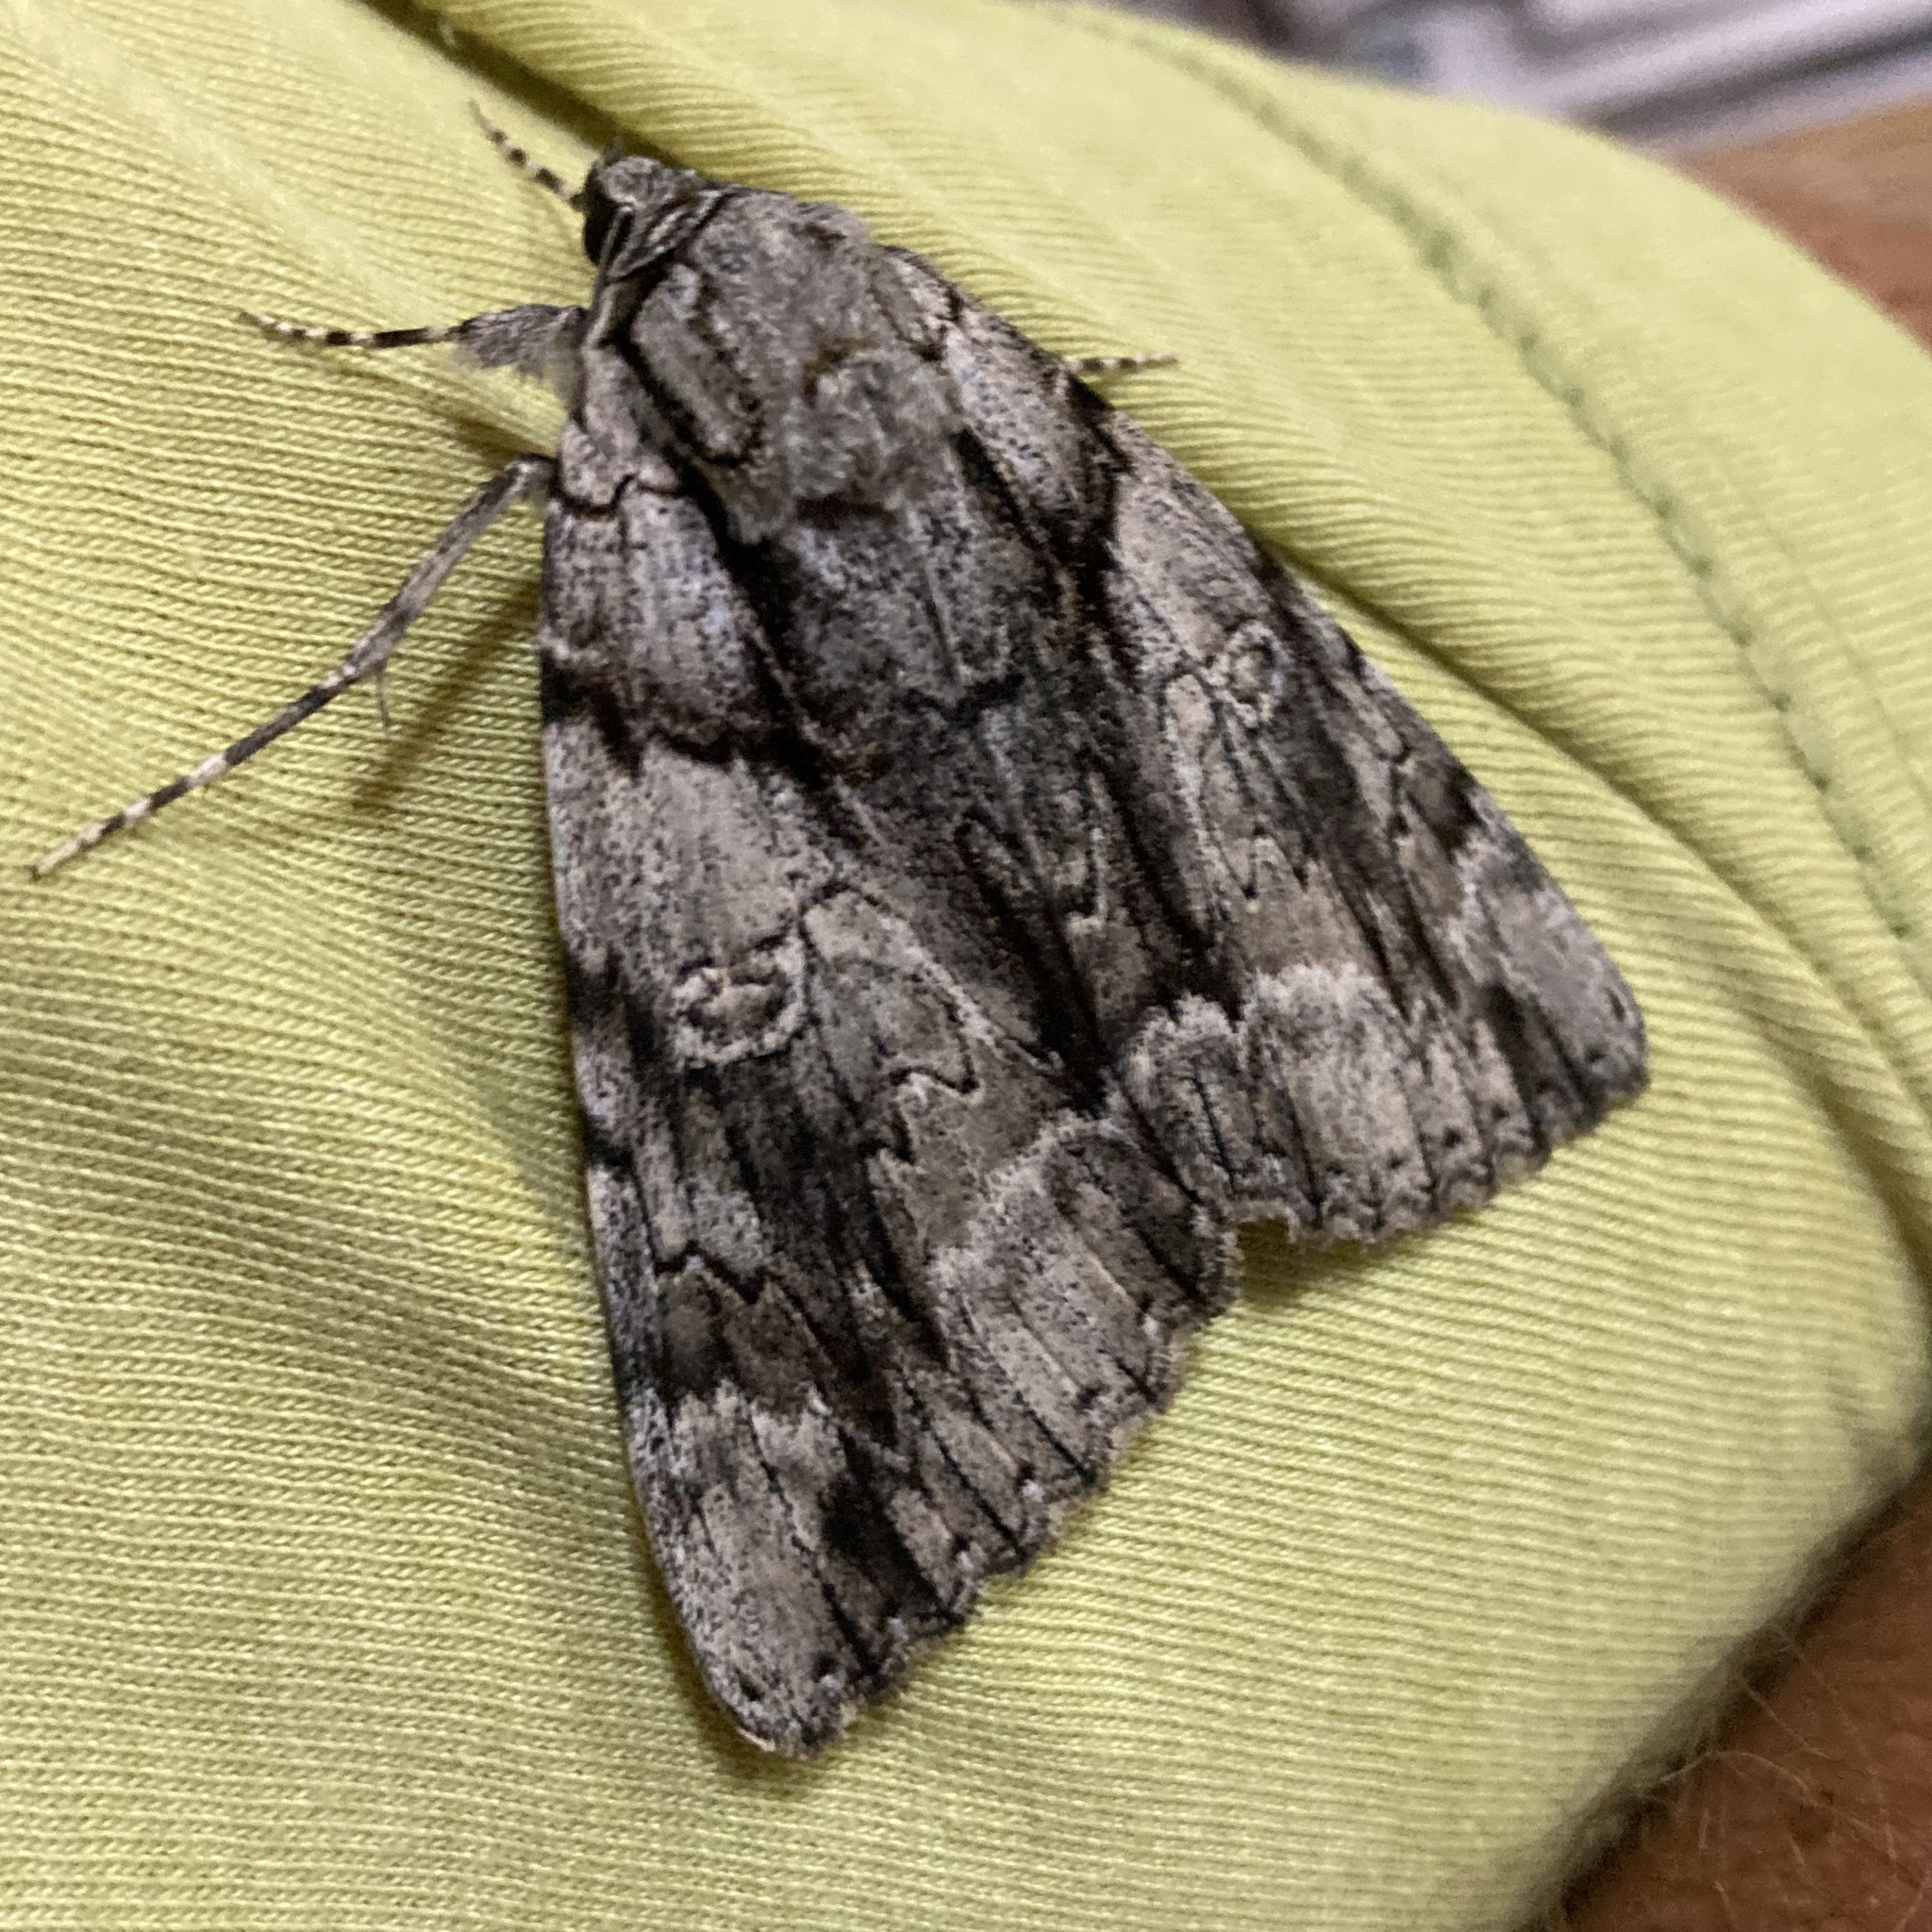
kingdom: Animalia
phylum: Arthropoda
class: Insecta
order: Lepidoptera
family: Erebidae
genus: Catocala
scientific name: Catocala vidua
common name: The widow
